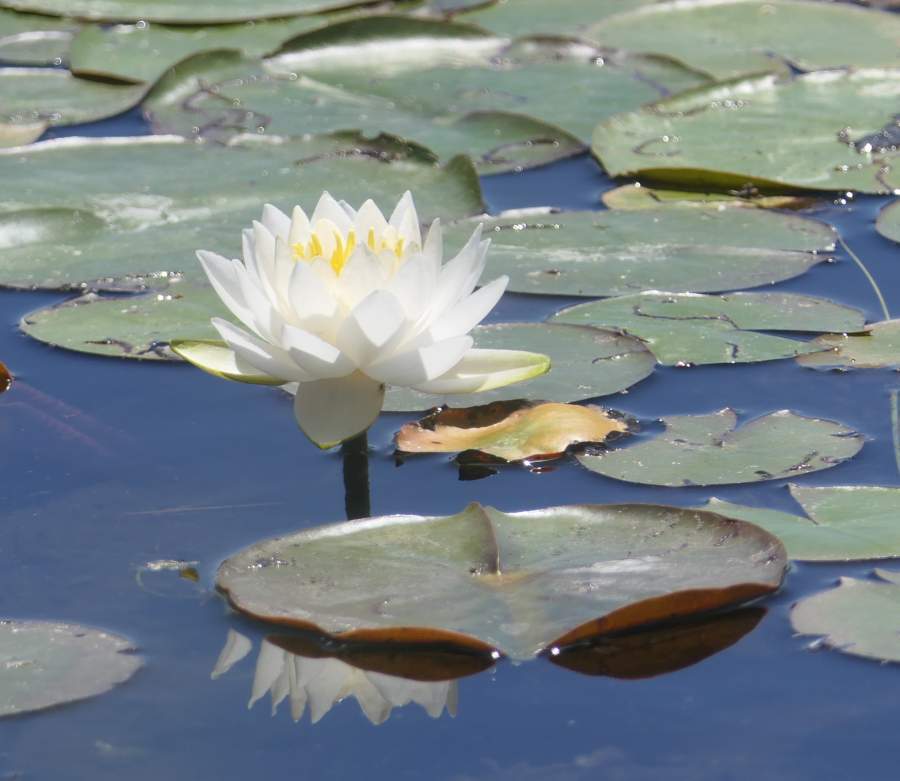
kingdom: Plantae
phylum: Tracheophyta
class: Magnoliopsida
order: Nymphaeales
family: Nymphaeaceae
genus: Nymphaea
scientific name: Nymphaea odorata
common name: Fragrant water-lily
